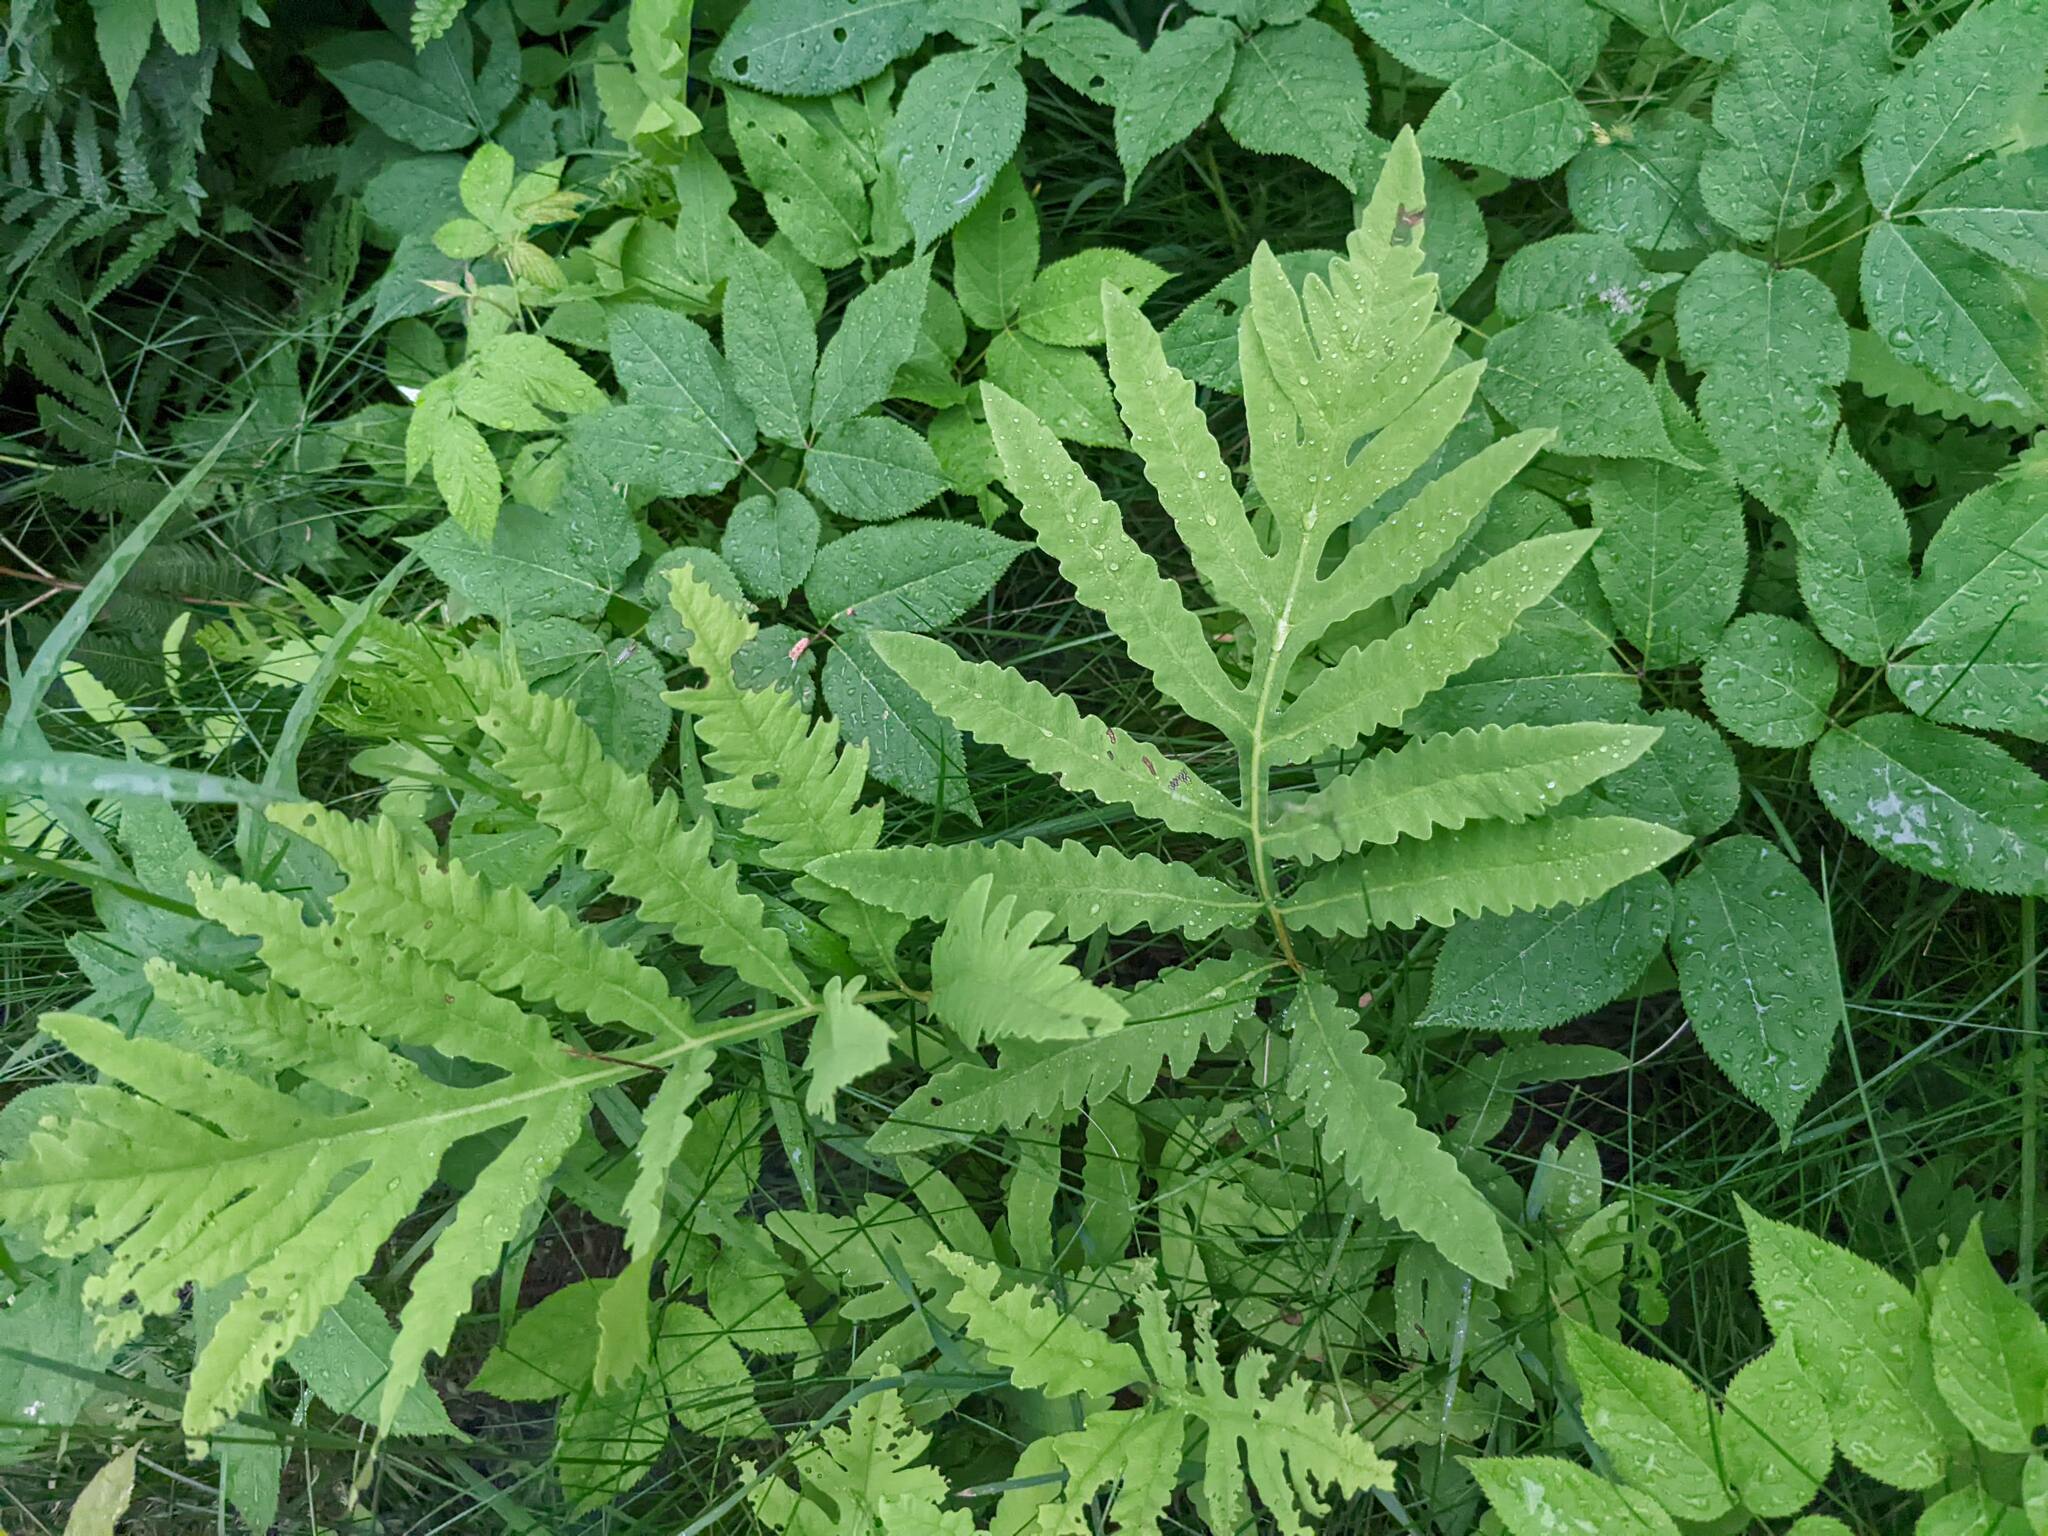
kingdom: Plantae
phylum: Tracheophyta
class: Polypodiopsida
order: Polypodiales
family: Onocleaceae
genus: Onoclea
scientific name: Onoclea sensibilis
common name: Sensitive fern
